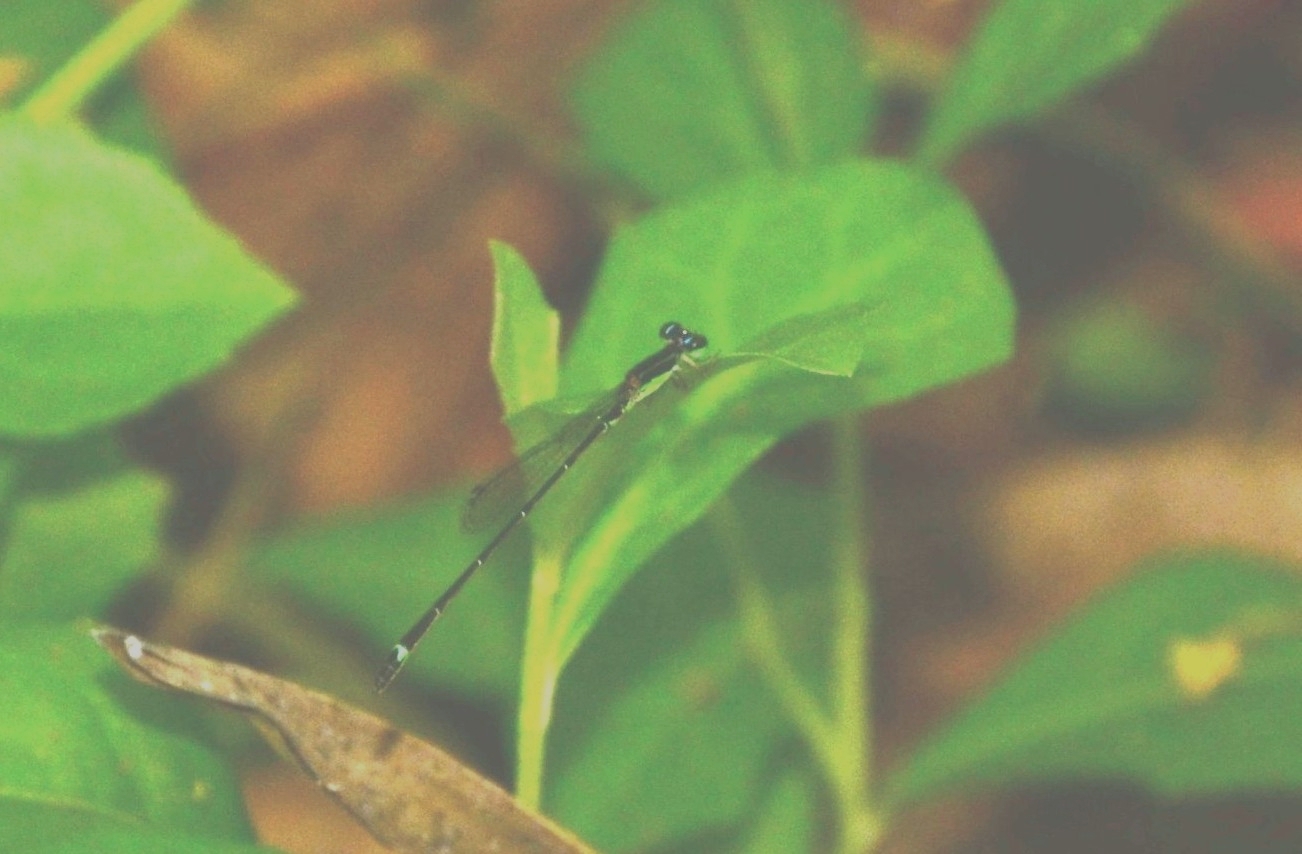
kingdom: Animalia
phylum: Arthropoda
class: Insecta
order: Odonata
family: Coenagrionidae
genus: Mortonagrion
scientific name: Mortonagrion varralli
